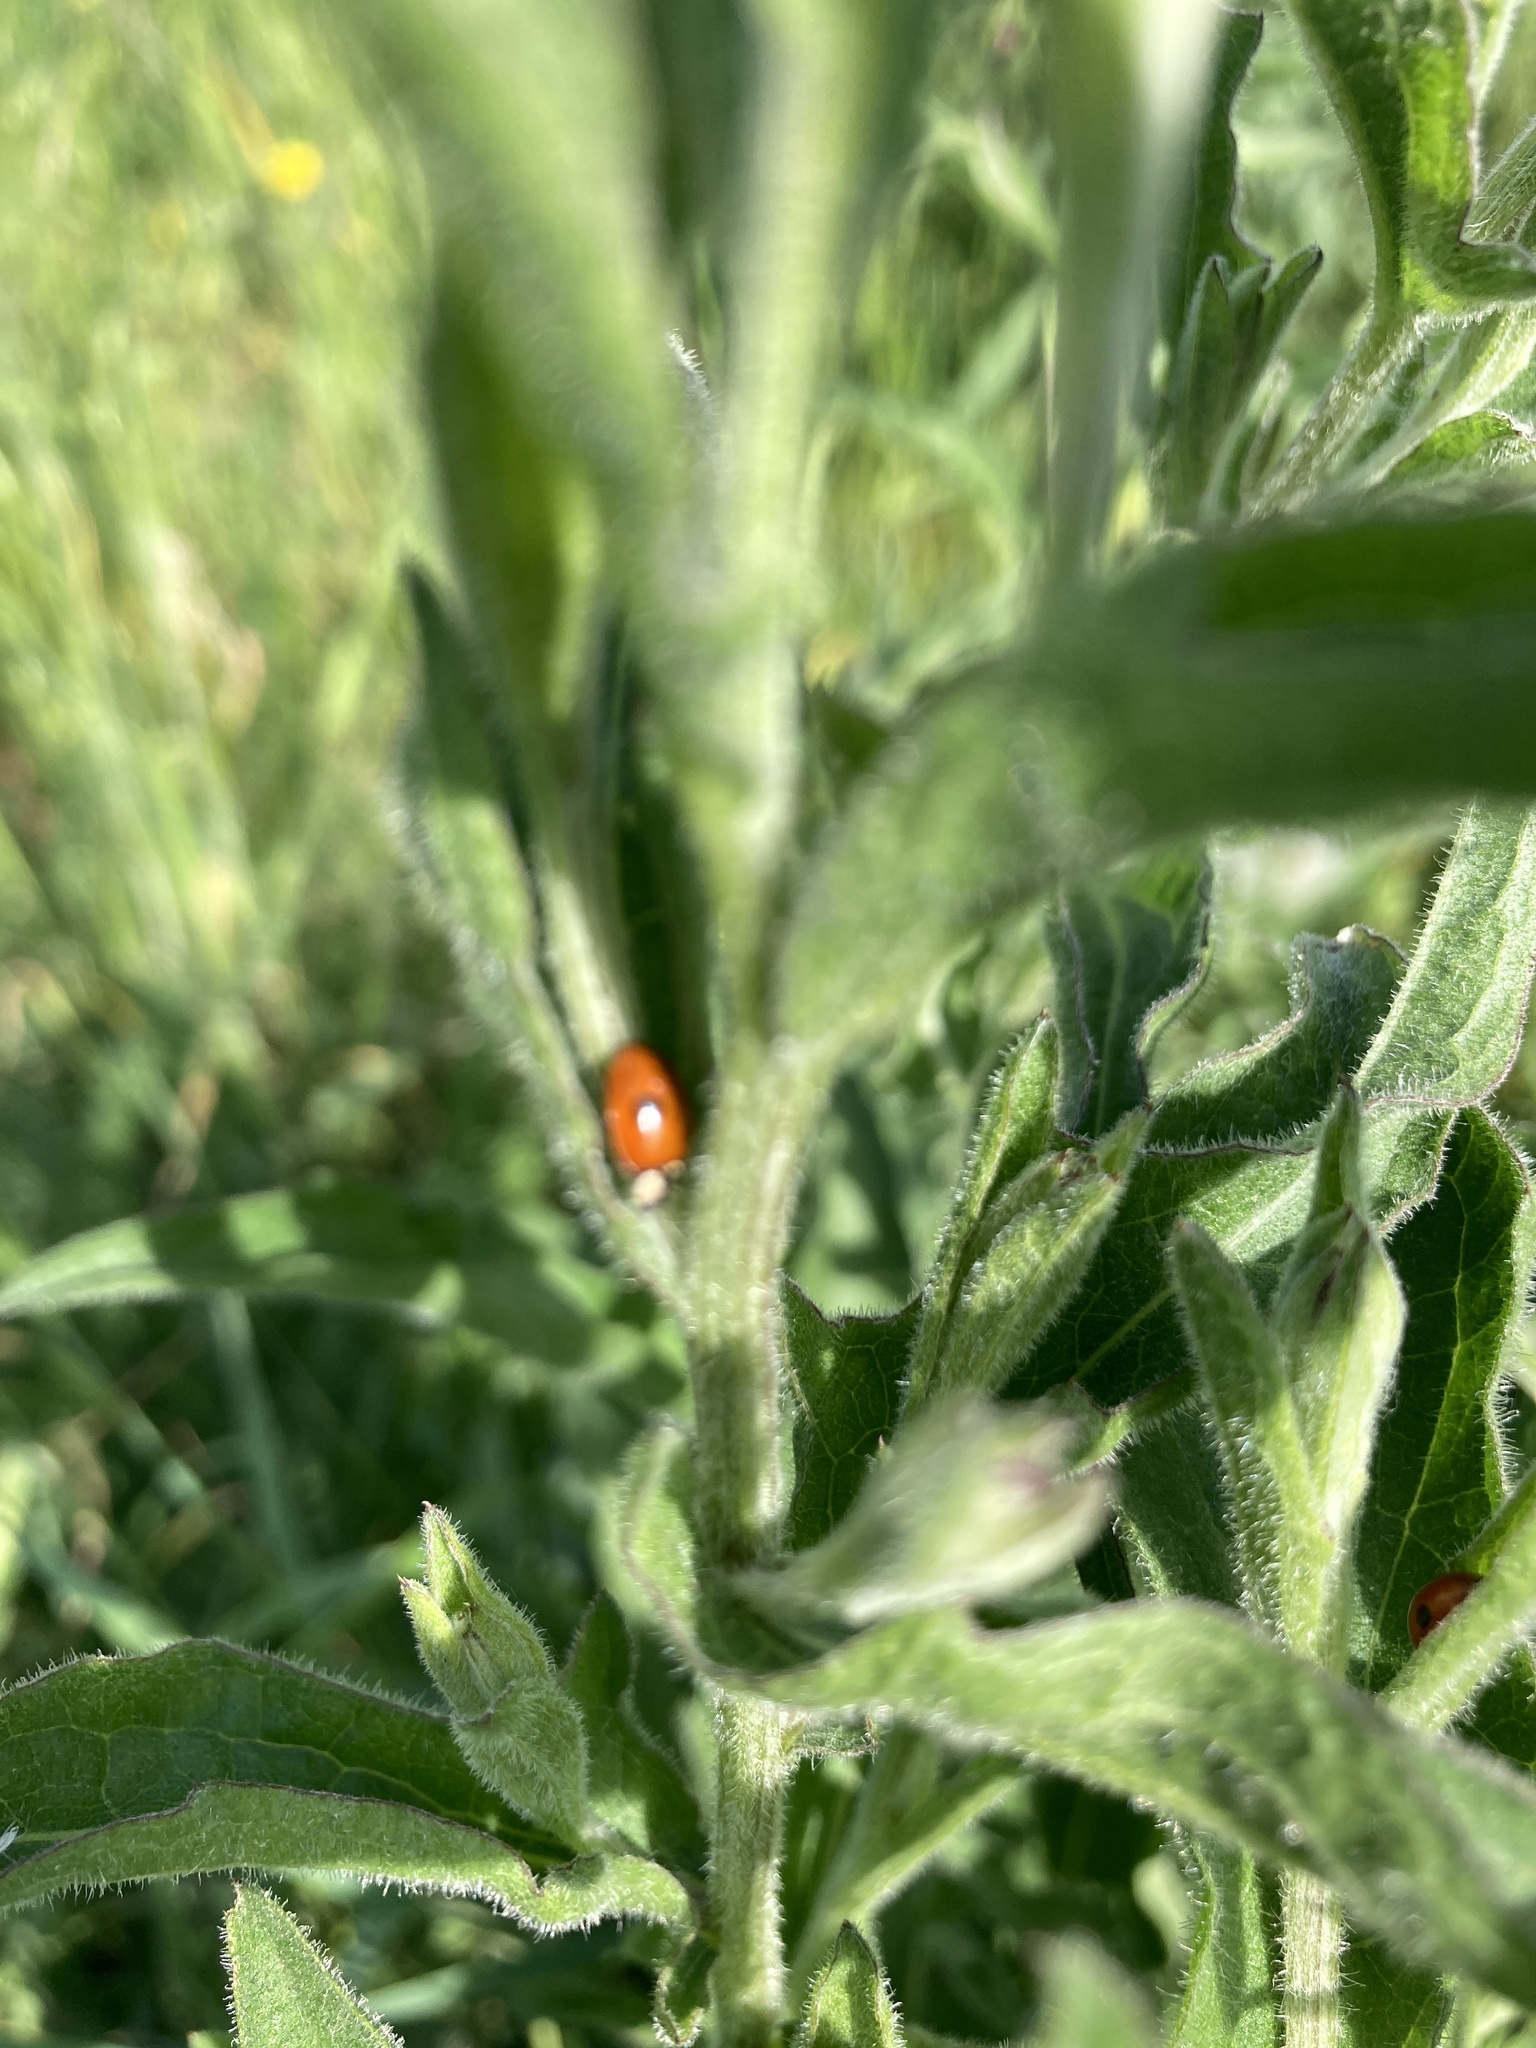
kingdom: Animalia
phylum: Arthropoda
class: Insecta
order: Coleoptera
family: Coccinellidae
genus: Adalia
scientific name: Adalia bipunctata
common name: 2-spot ladybird
